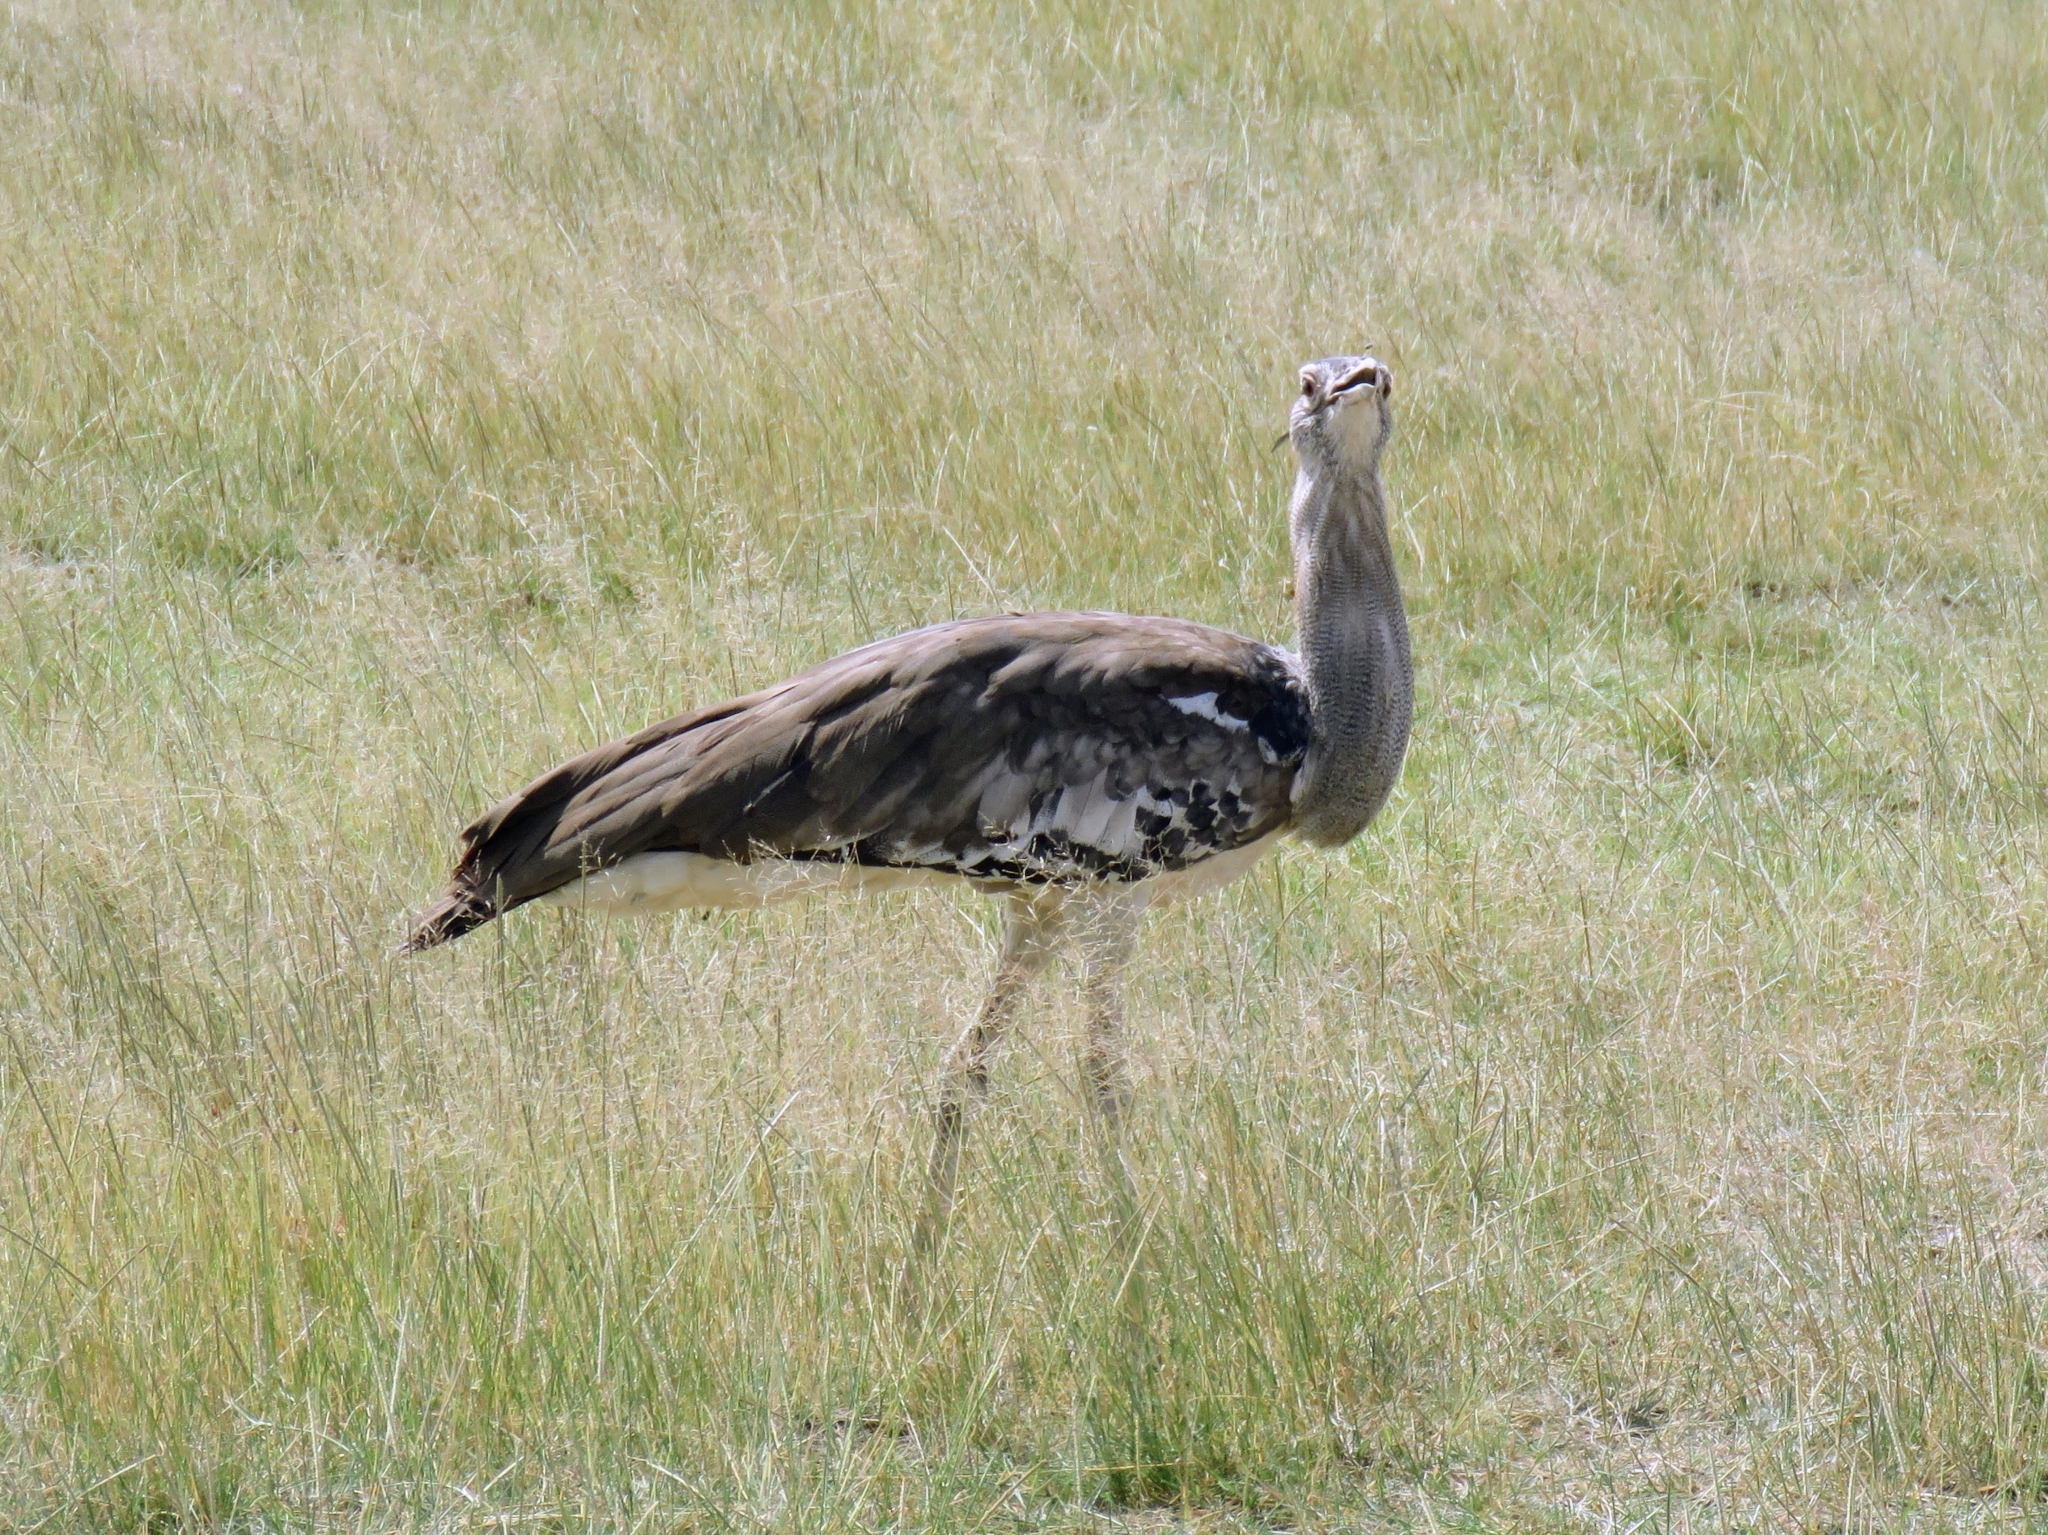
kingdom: Animalia
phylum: Chordata
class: Aves
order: Otidiformes
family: Otididae
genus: Ardeotis
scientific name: Ardeotis kori
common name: Kori bustard
